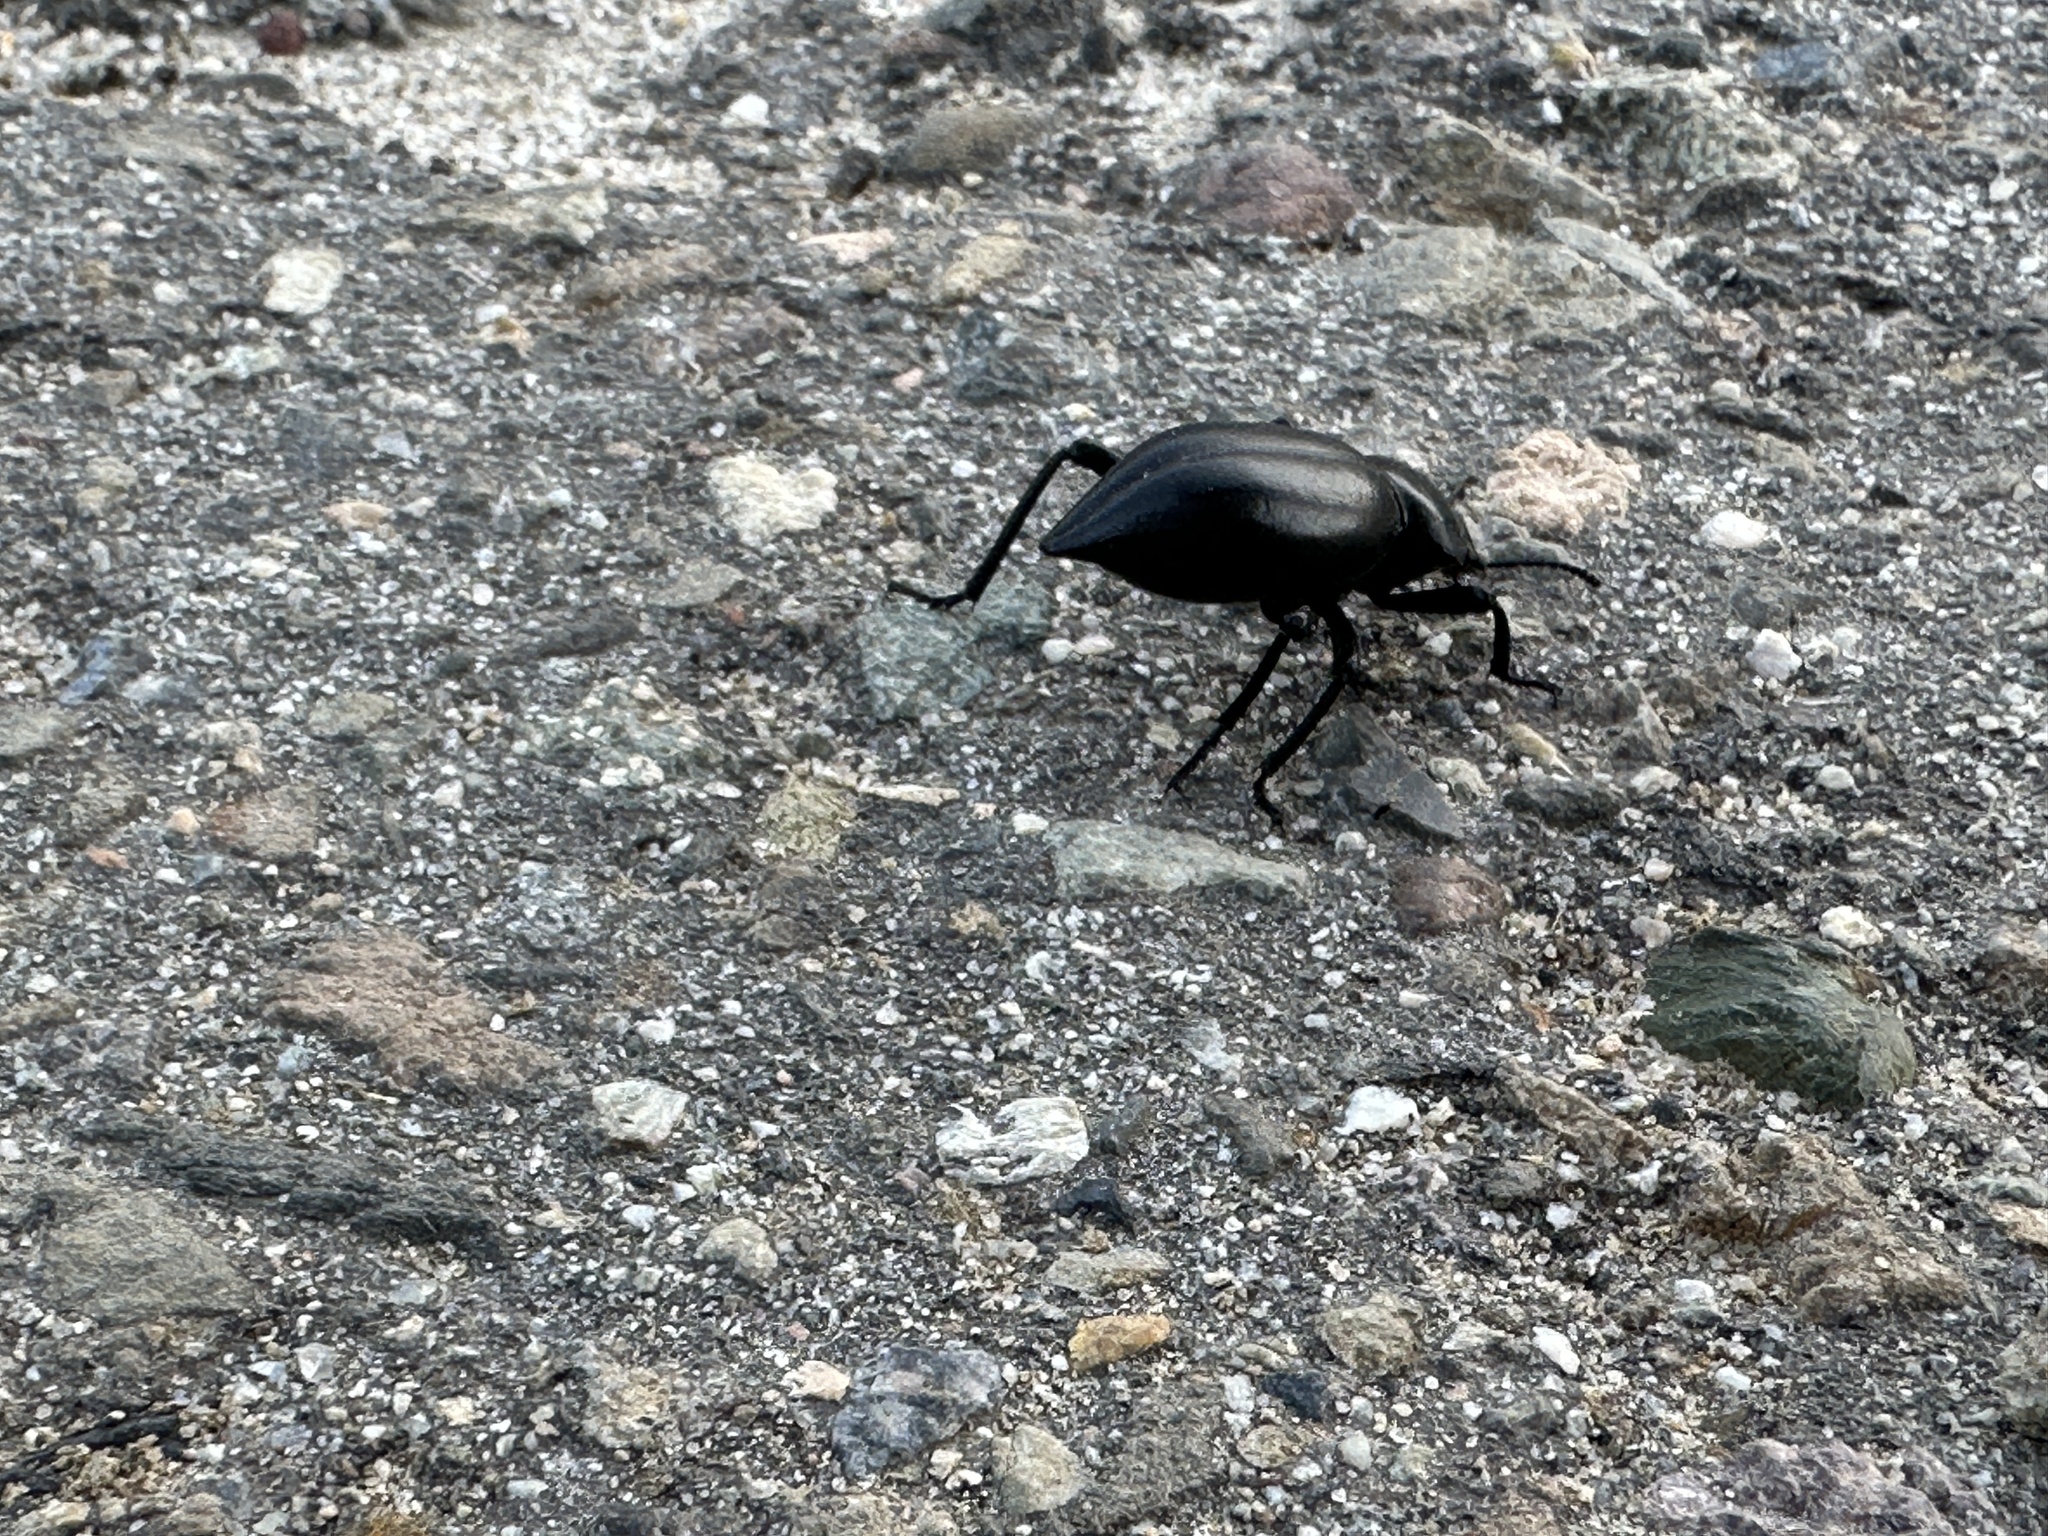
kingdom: Animalia
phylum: Arthropoda
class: Insecta
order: Coleoptera
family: Tenebrionidae
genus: Eleodes
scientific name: Eleodes acuticauda
